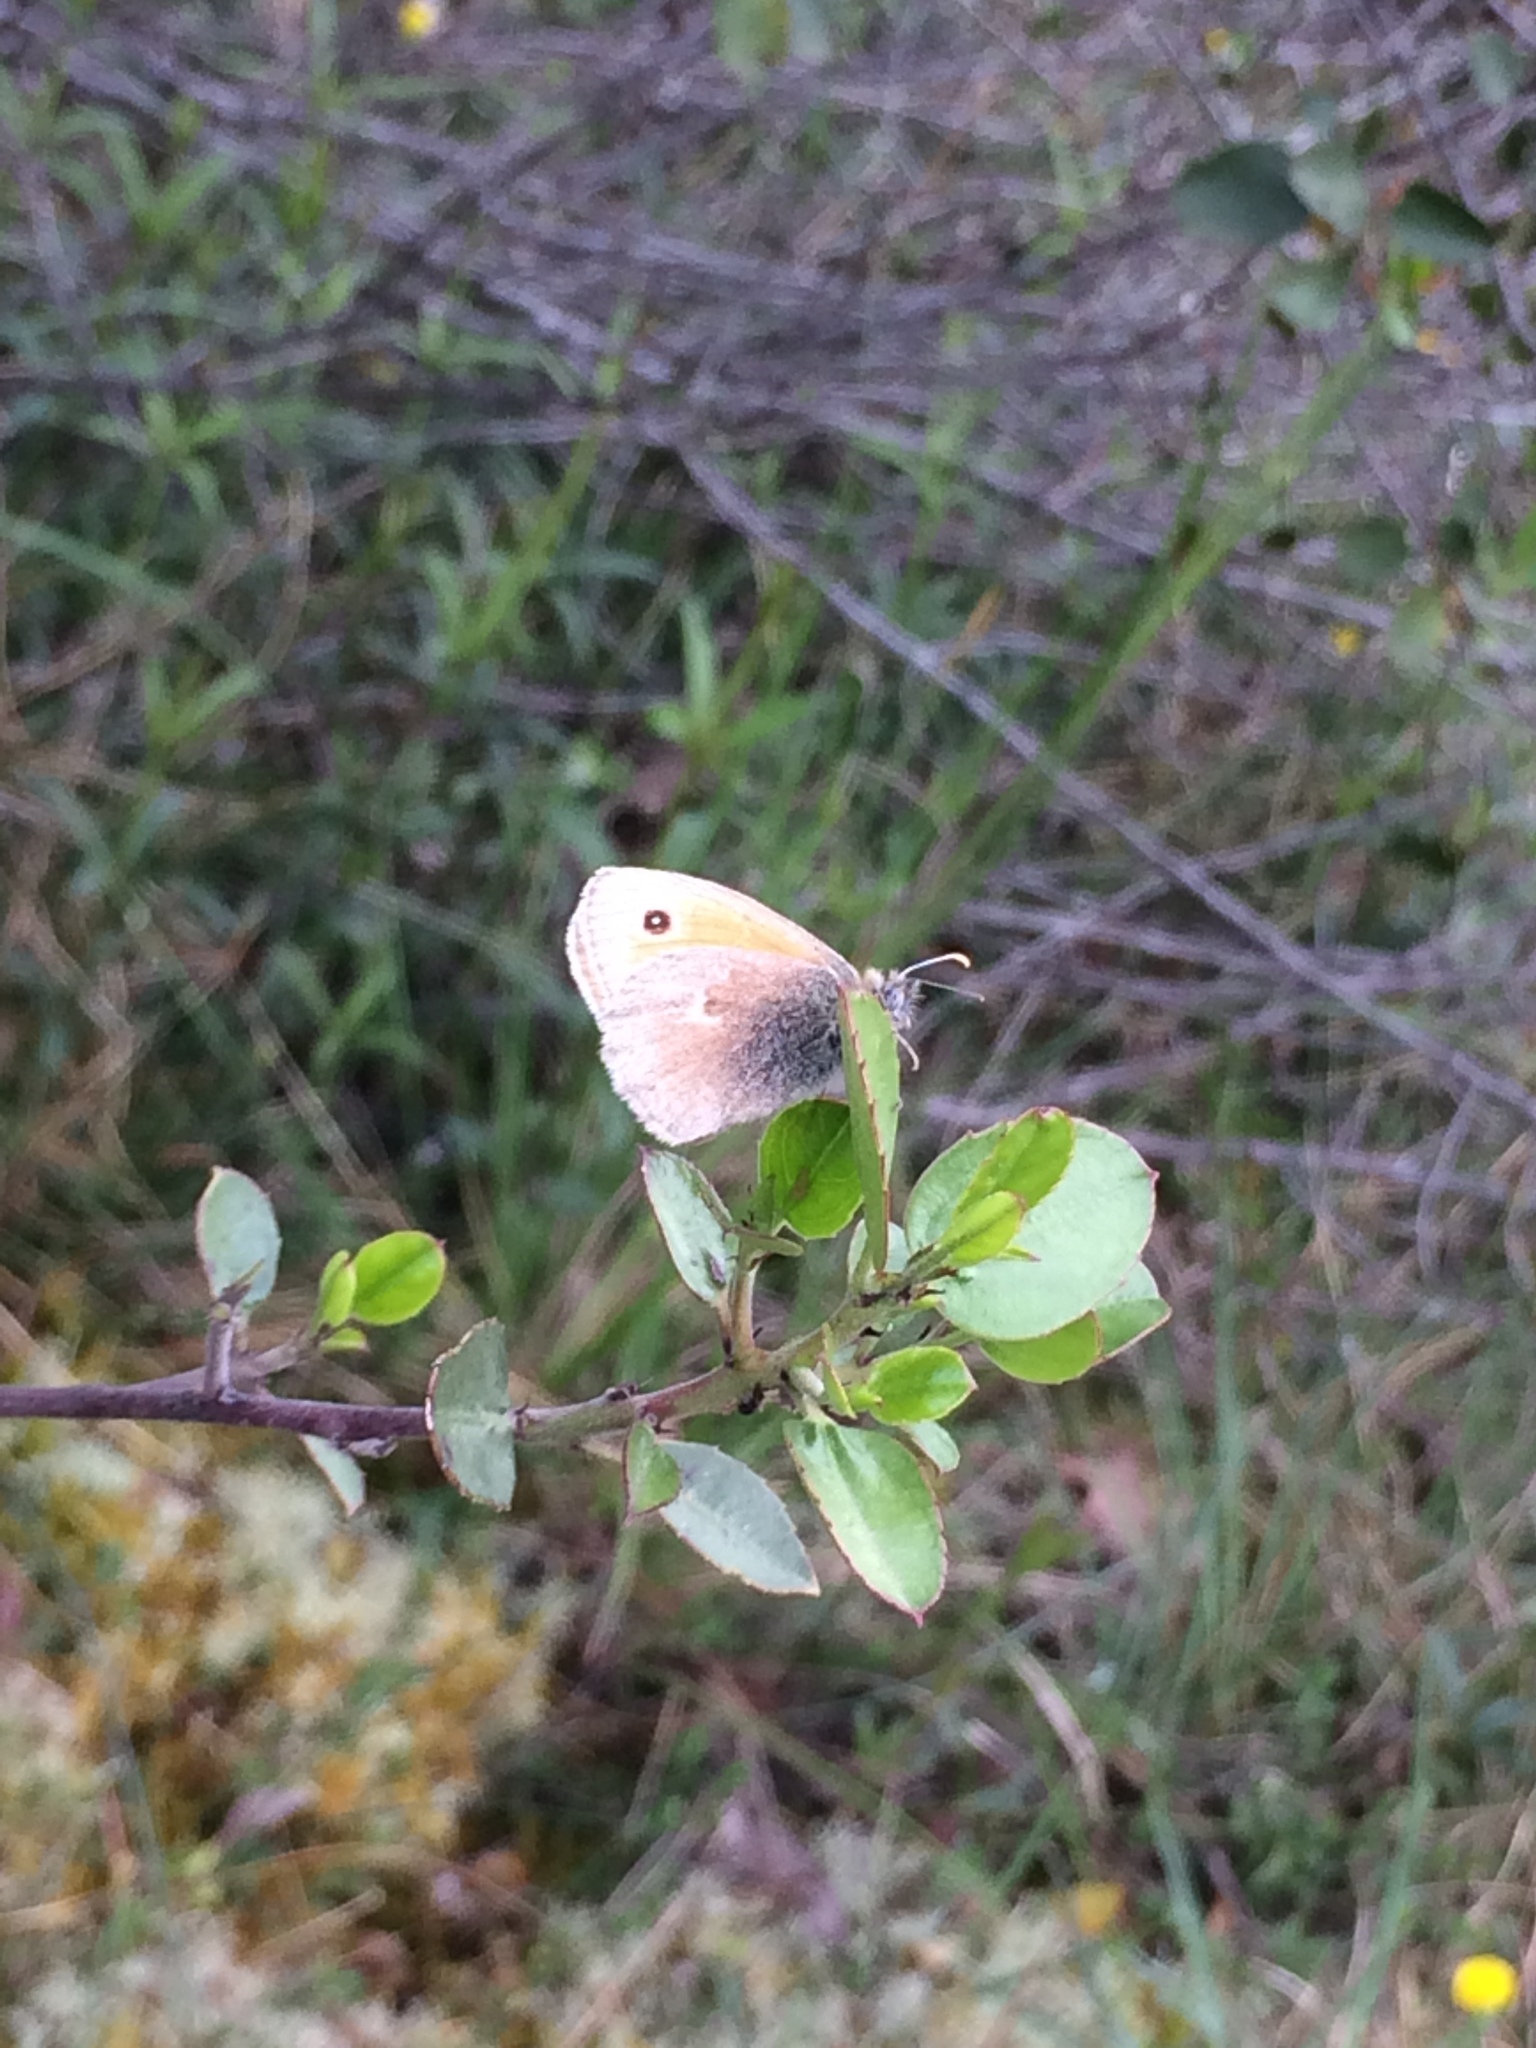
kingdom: Animalia
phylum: Arthropoda
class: Insecta
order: Lepidoptera
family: Nymphalidae
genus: Coenonympha
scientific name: Coenonympha pamphilus
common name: Small heath
